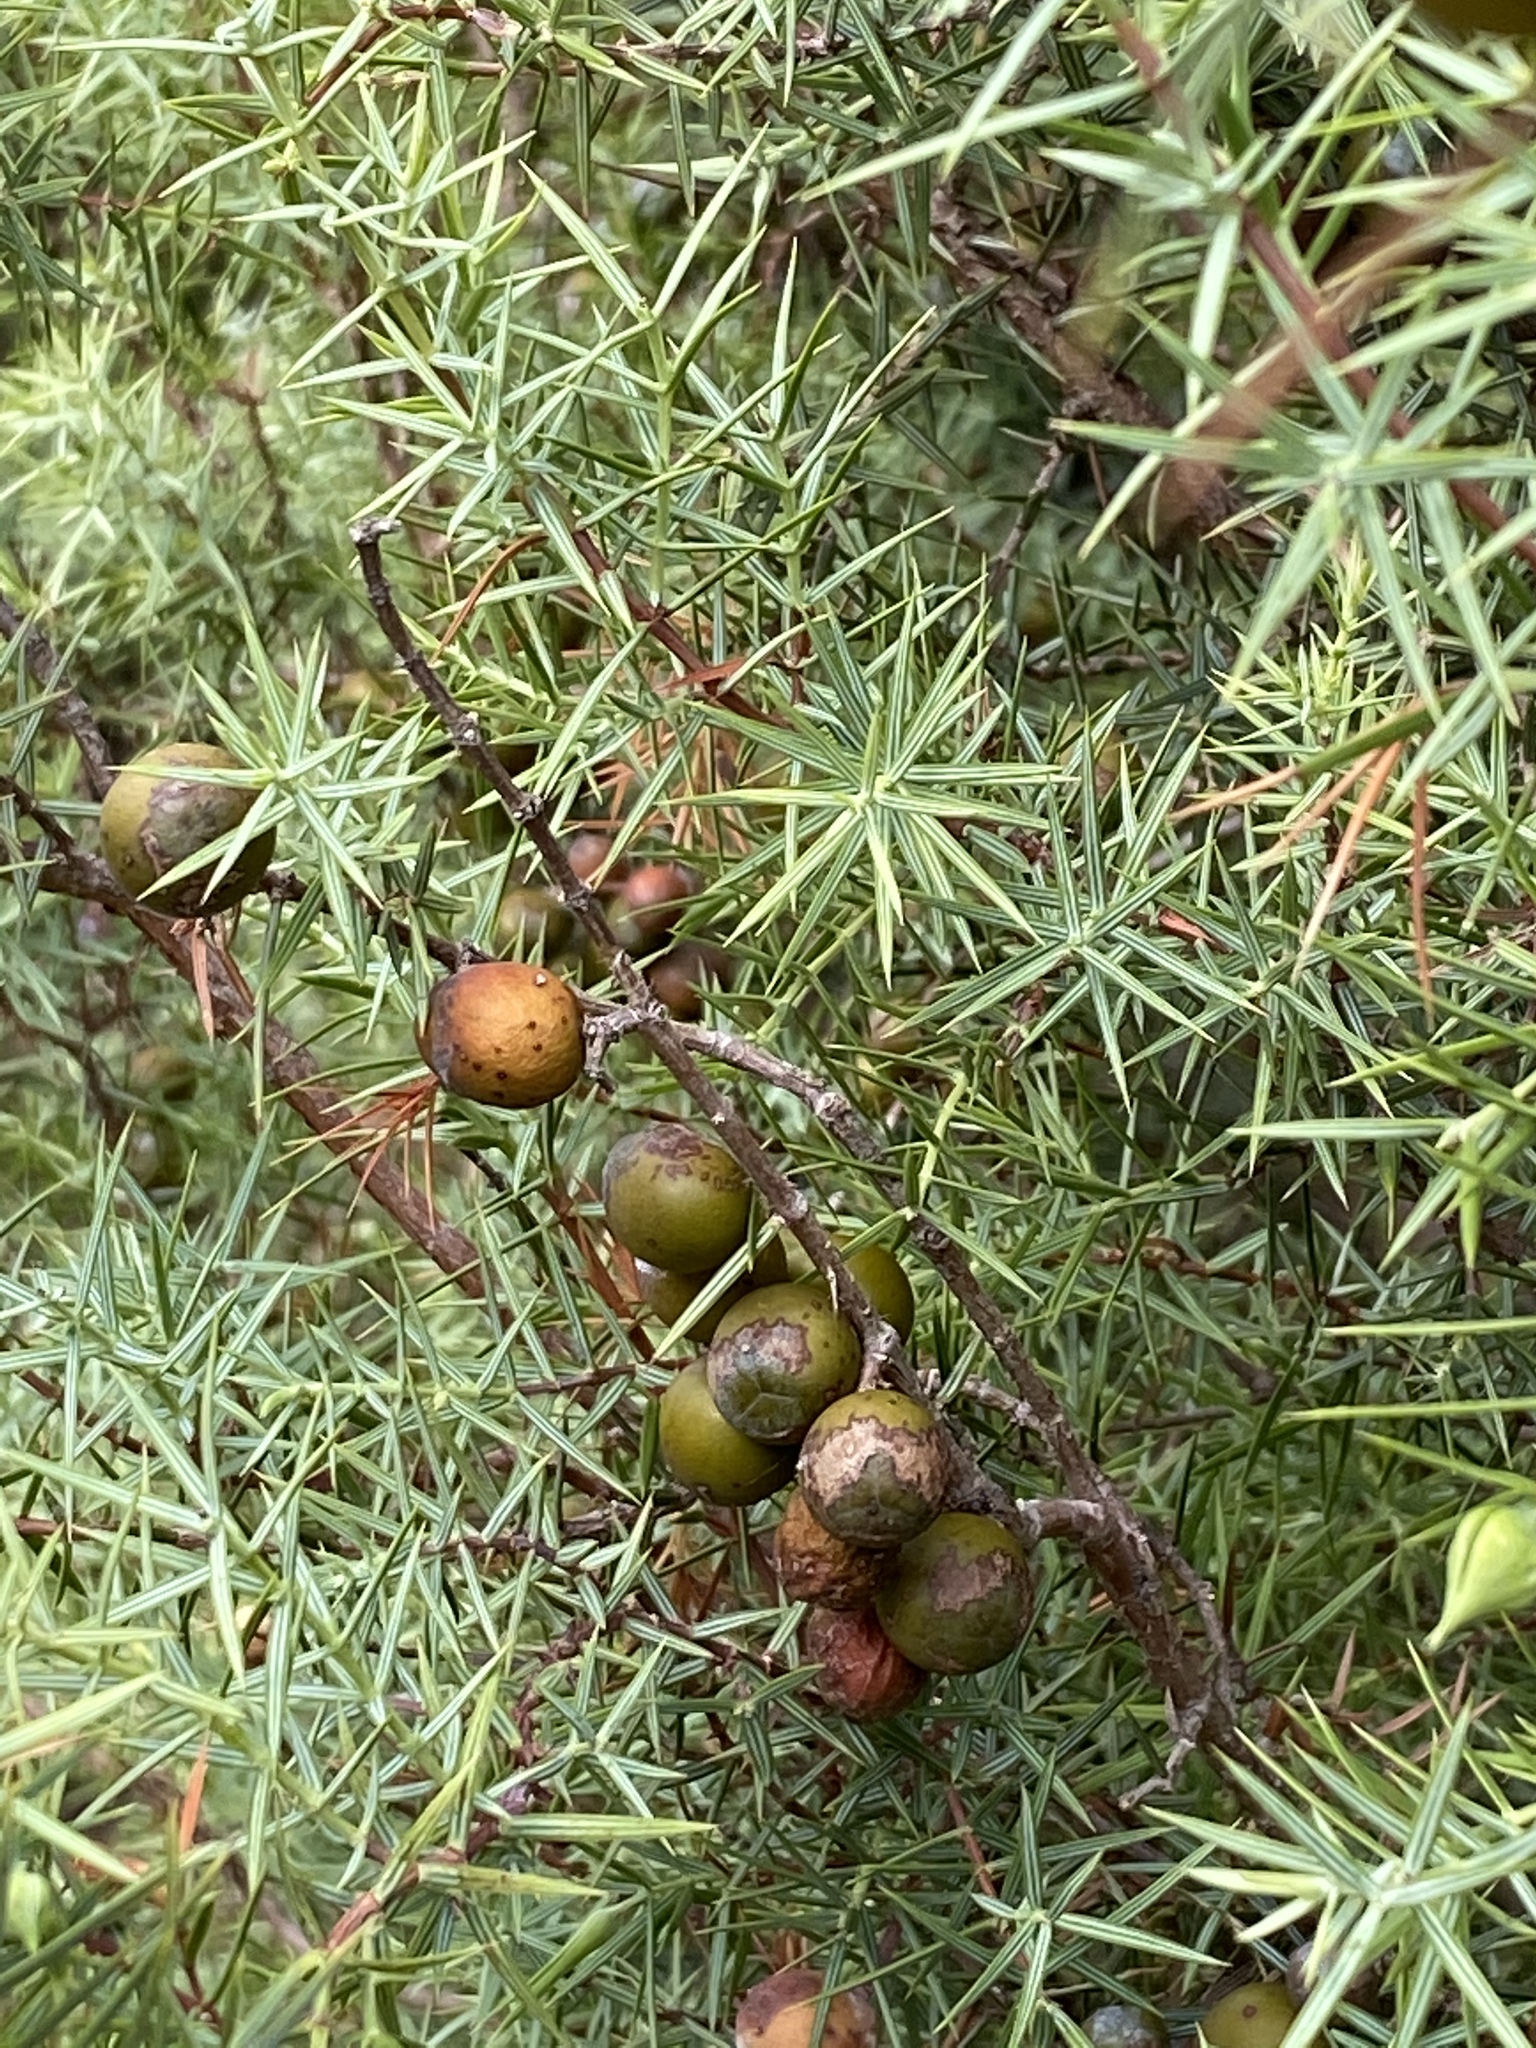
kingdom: Plantae
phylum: Tracheophyta
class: Pinopsida
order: Pinales
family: Cupressaceae
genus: Juniperus
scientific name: Juniperus oxycedrus
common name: Prickly juniper
